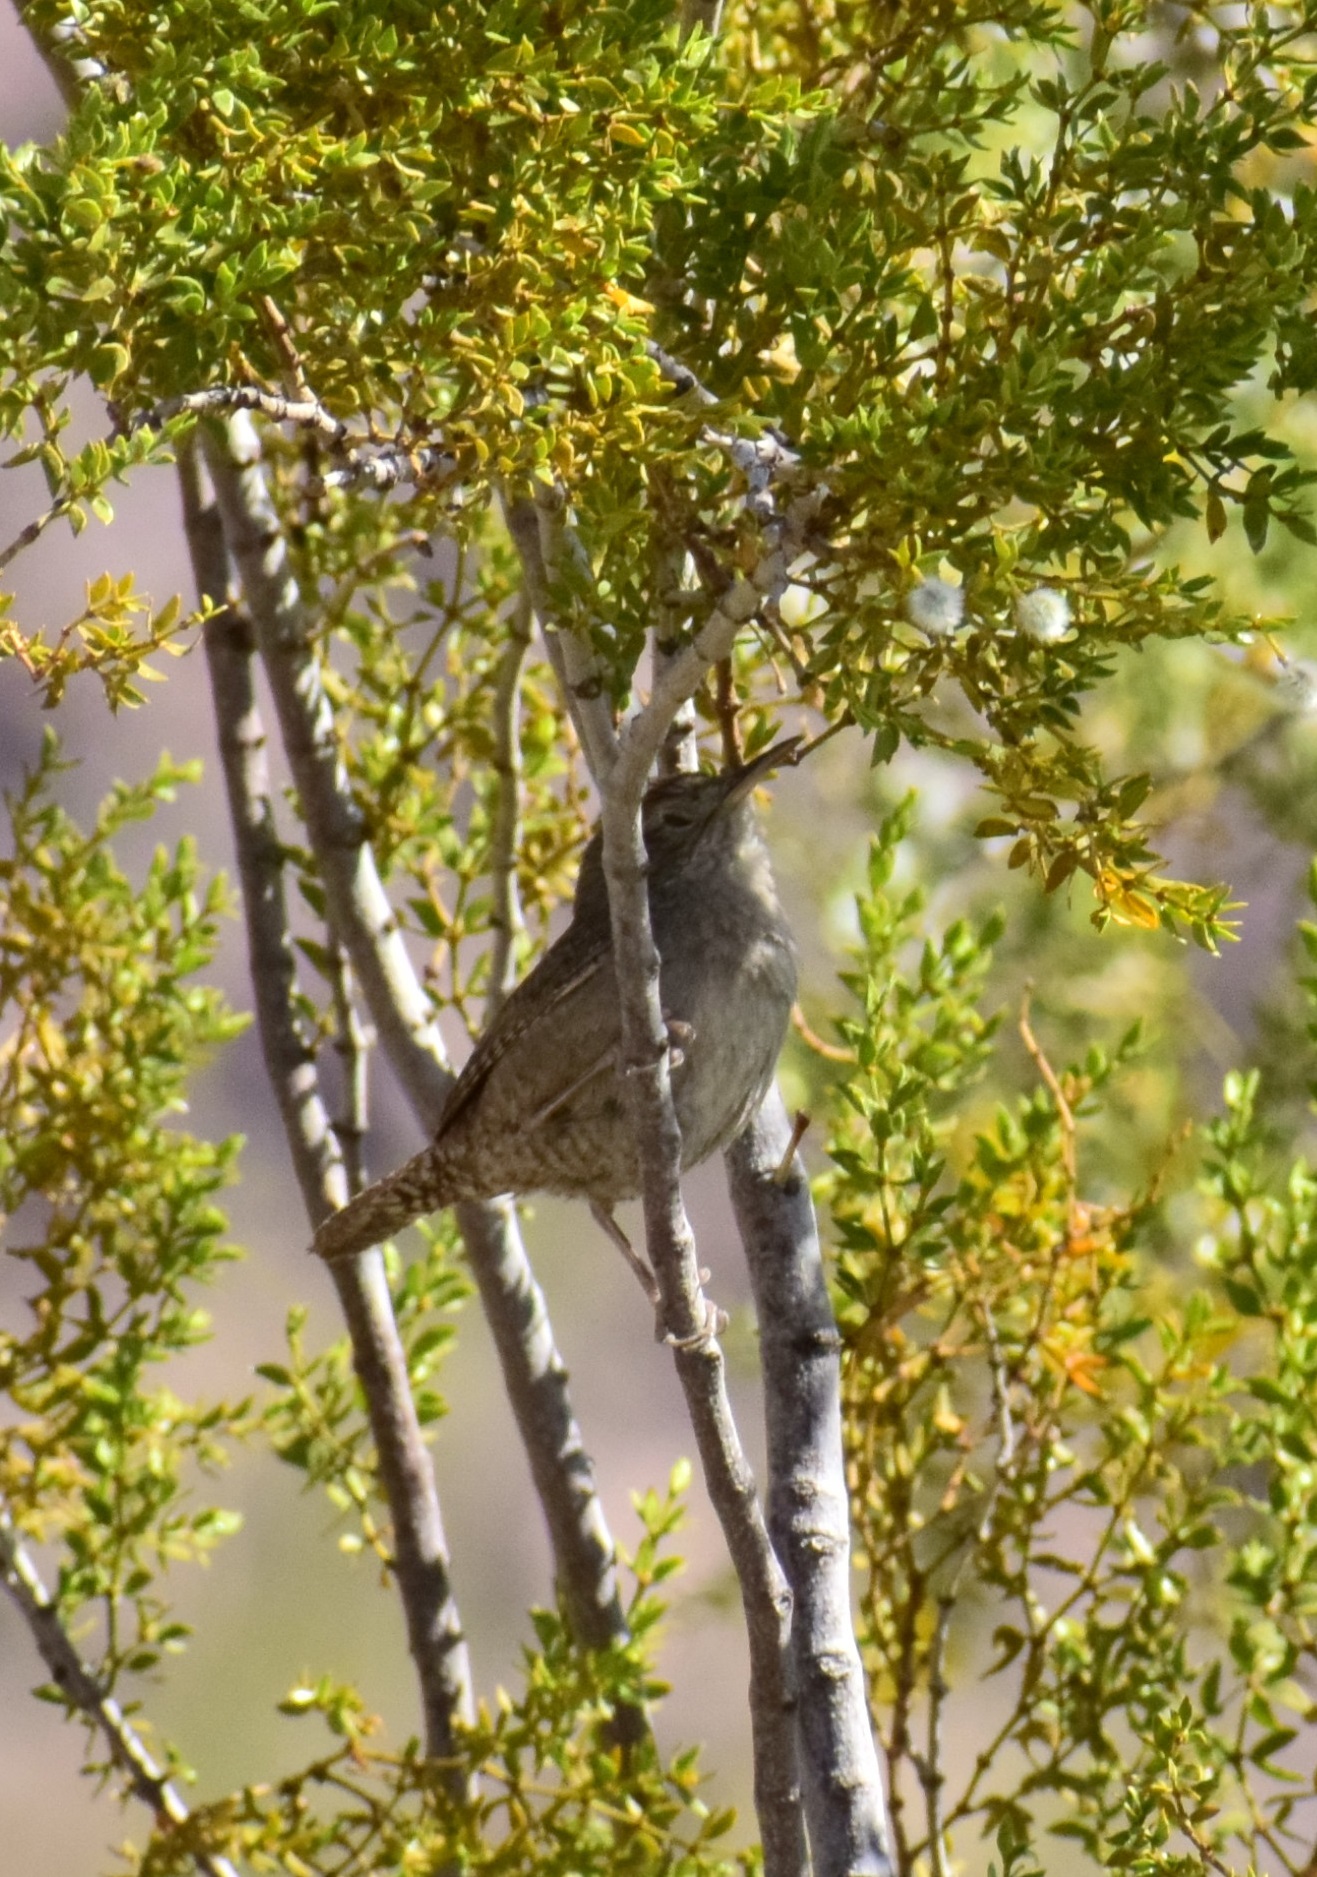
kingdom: Animalia
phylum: Chordata
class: Aves
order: Passeriformes
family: Troglodytidae
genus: Troglodytes
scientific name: Troglodytes aedon
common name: House wren
